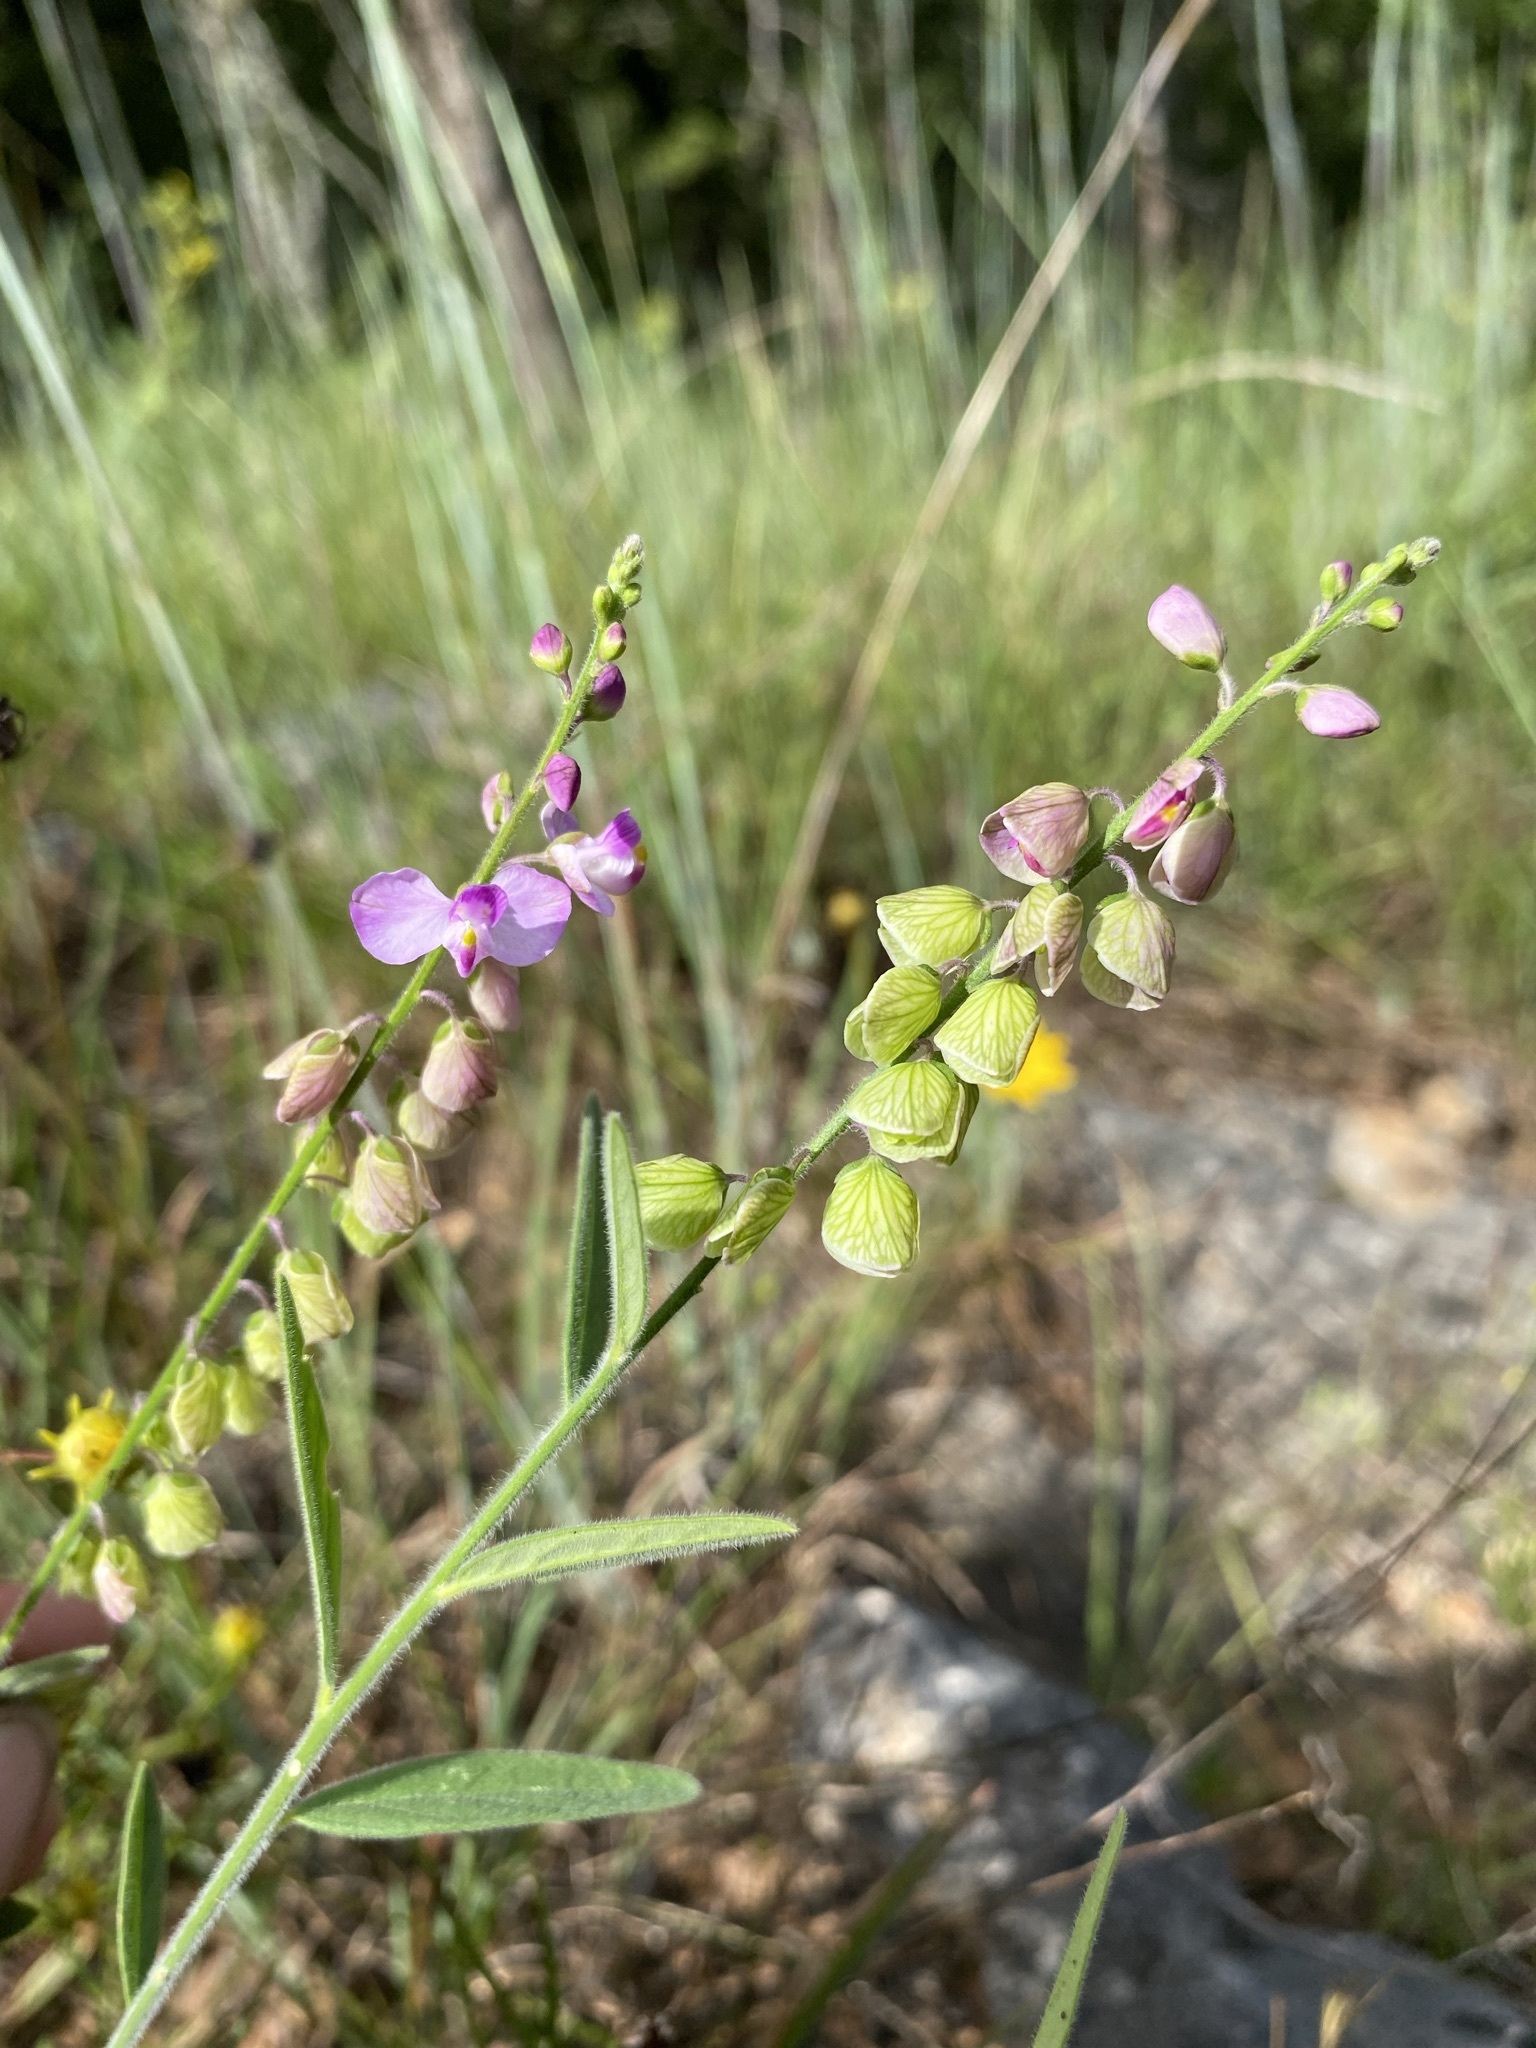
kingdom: Plantae
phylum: Tracheophyta
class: Magnoliopsida
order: Fabales
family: Polygalaceae
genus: Asemeia
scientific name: Asemeia grandiflora
